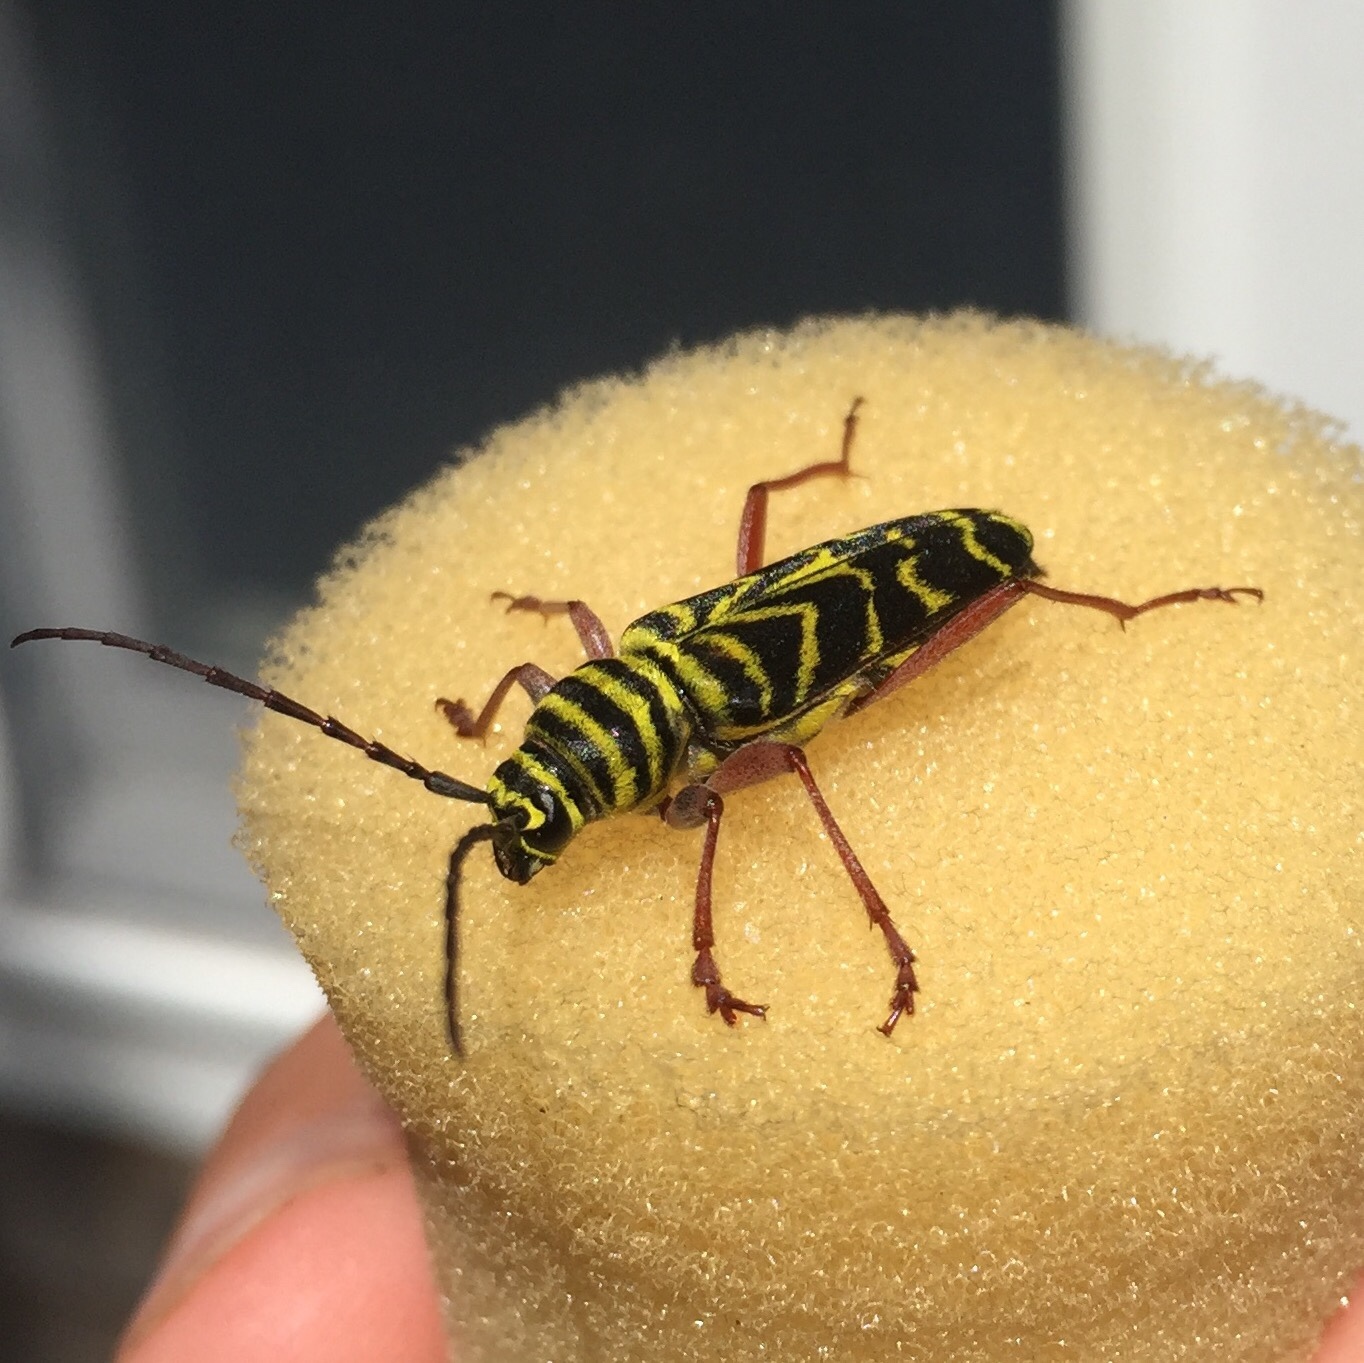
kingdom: Animalia
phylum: Arthropoda
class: Insecta
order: Coleoptera
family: Cerambycidae
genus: Megacyllene
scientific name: Megacyllene robiniae
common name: Locust borer
